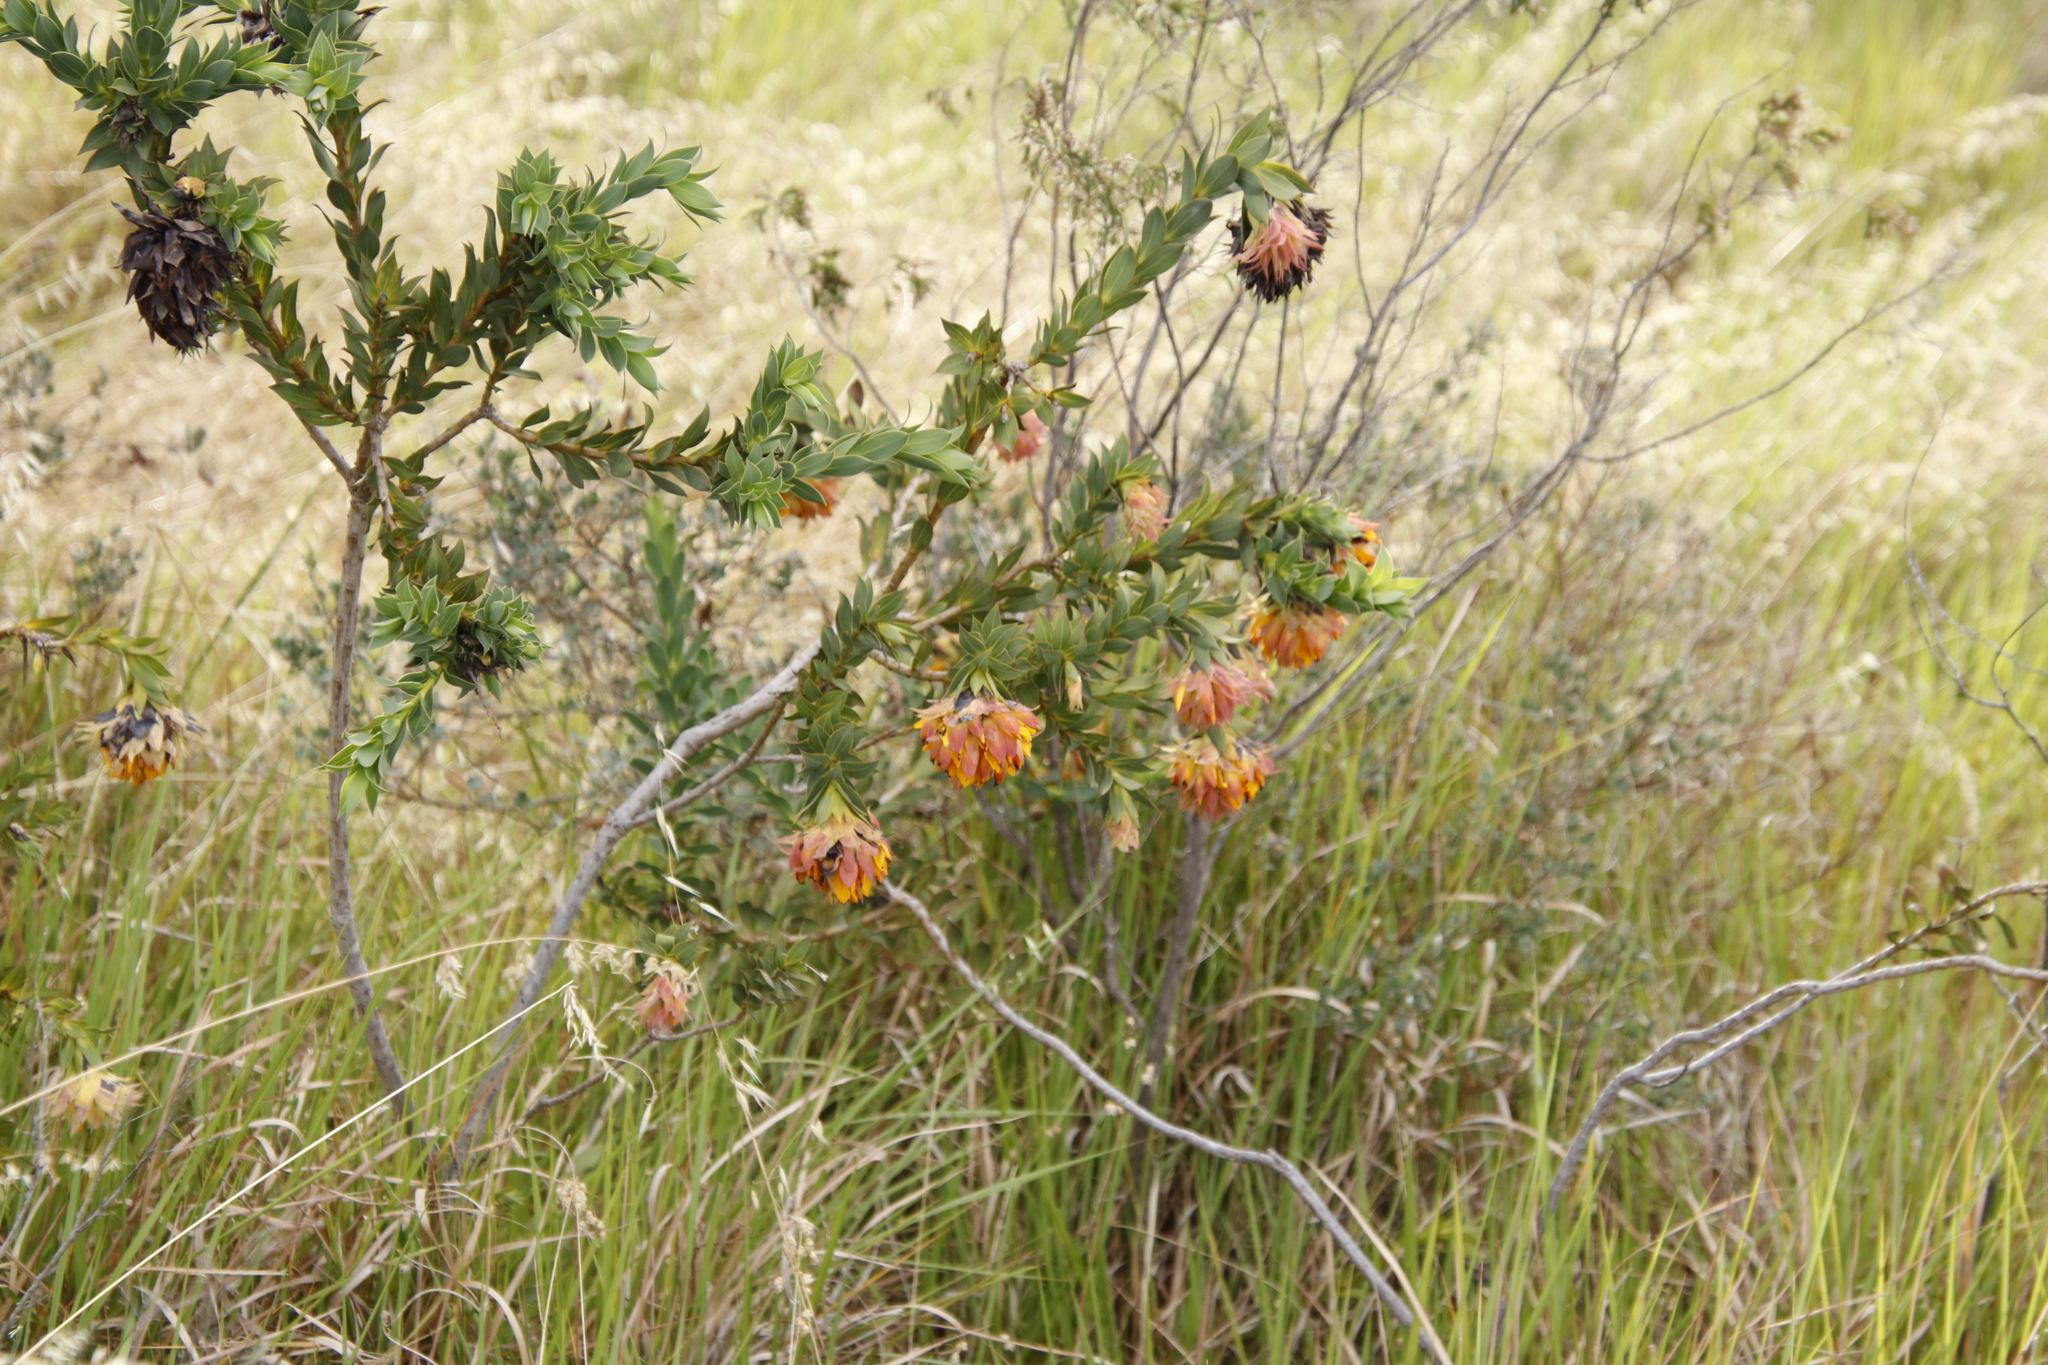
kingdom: Plantae
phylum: Tracheophyta
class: Magnoliopsida
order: Fabales
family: Fabaceae
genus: Liparia
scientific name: Liparia splendens
